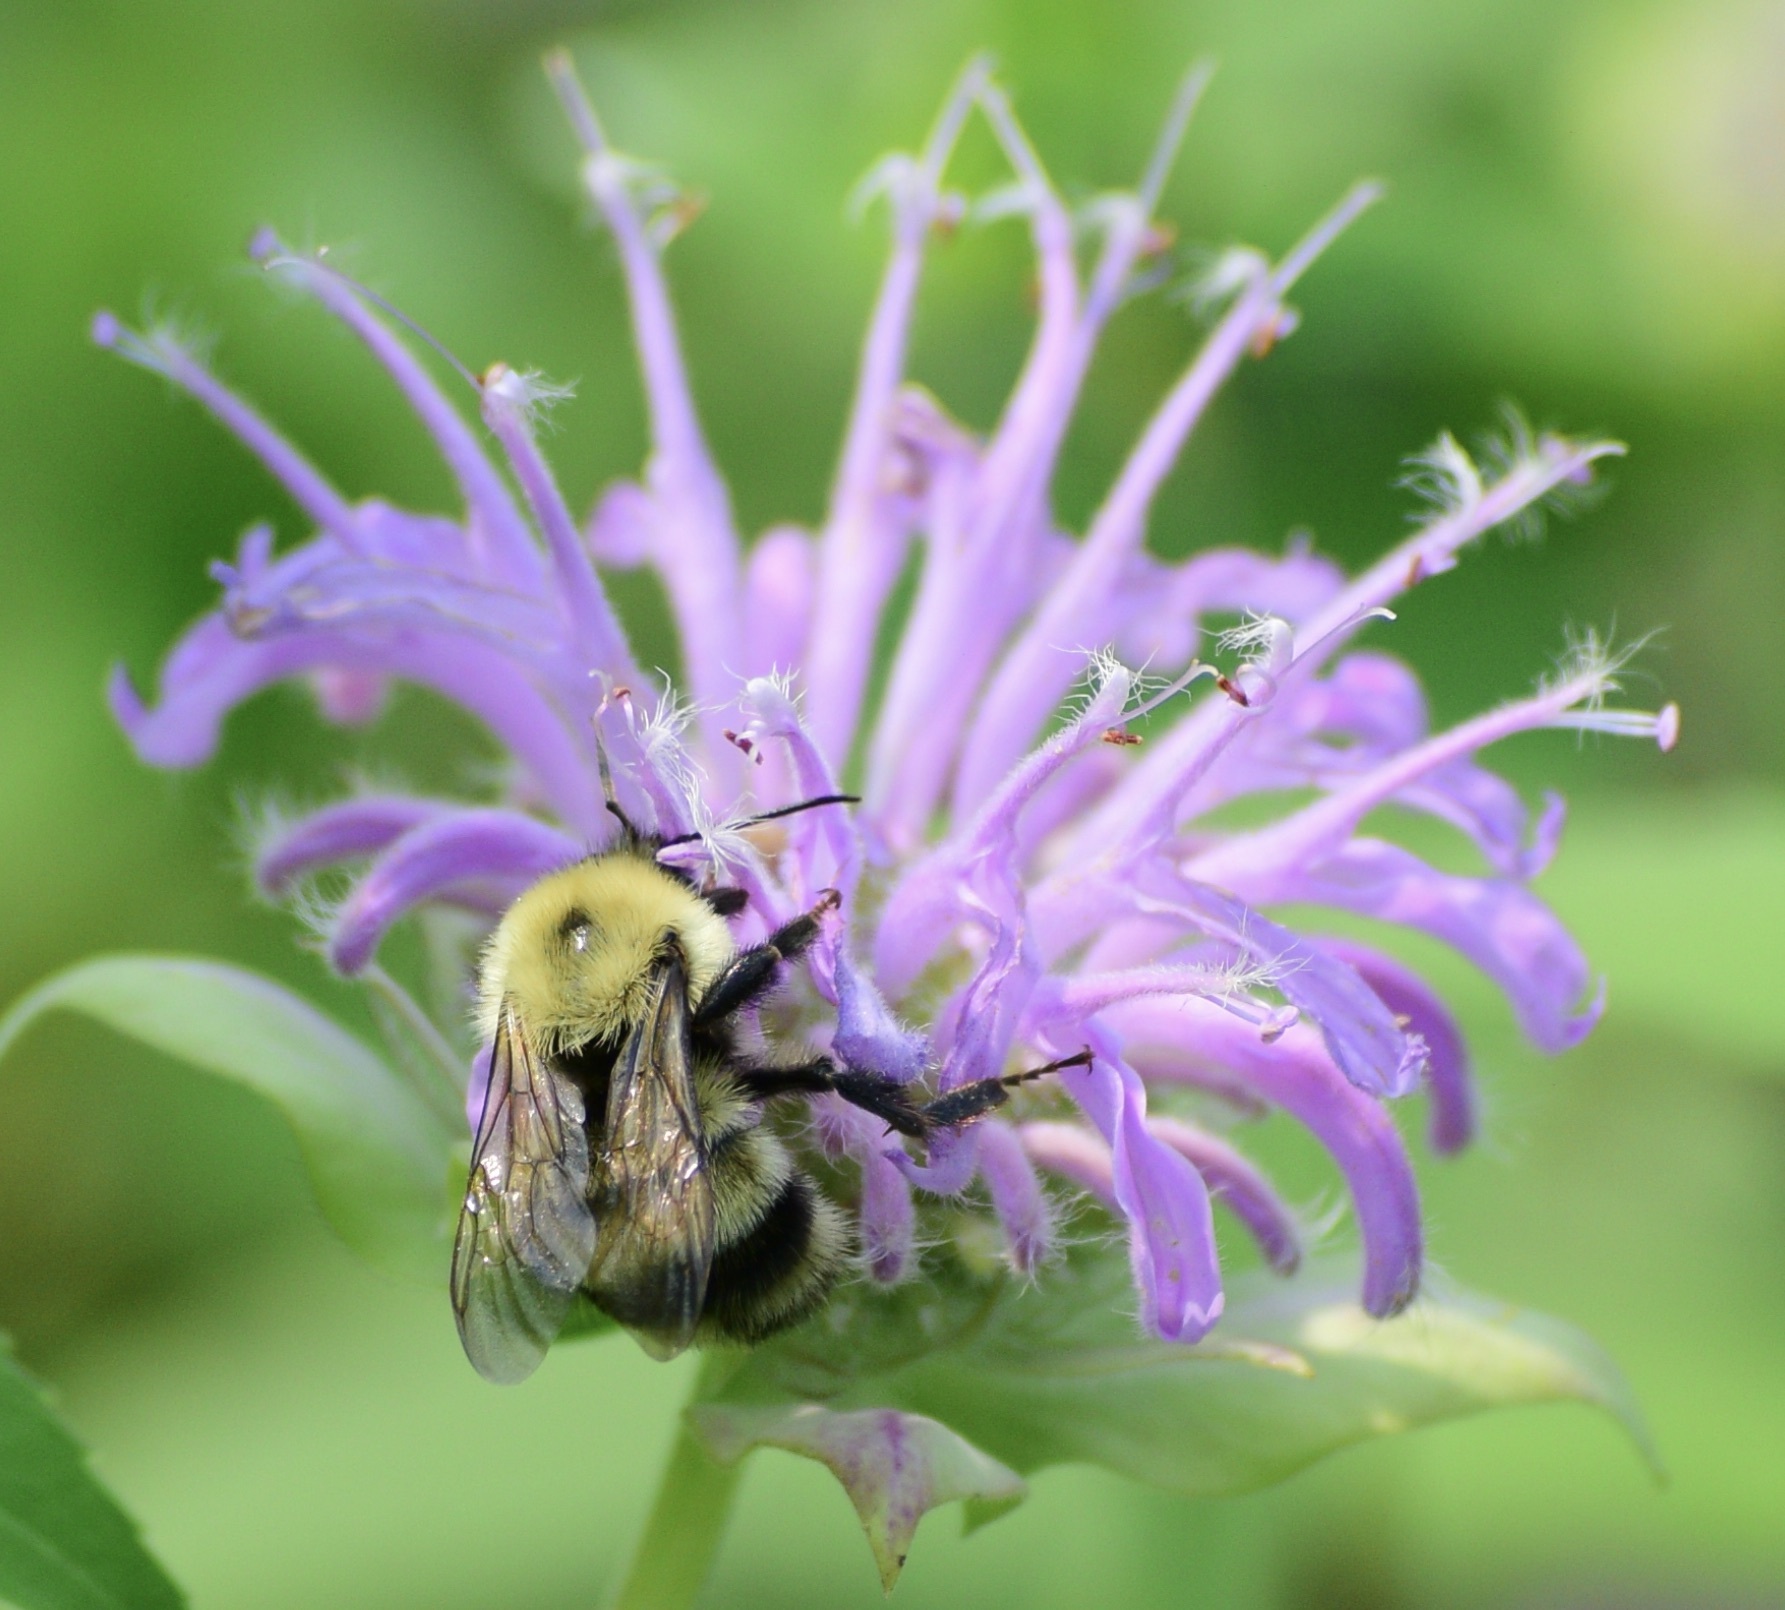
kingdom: Animalia
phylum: Arthropoda
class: Insecta
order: Hymenoptera
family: Apidae
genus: Bombus
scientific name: Bombus bimaculatus
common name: Two-spotted bumble bee
